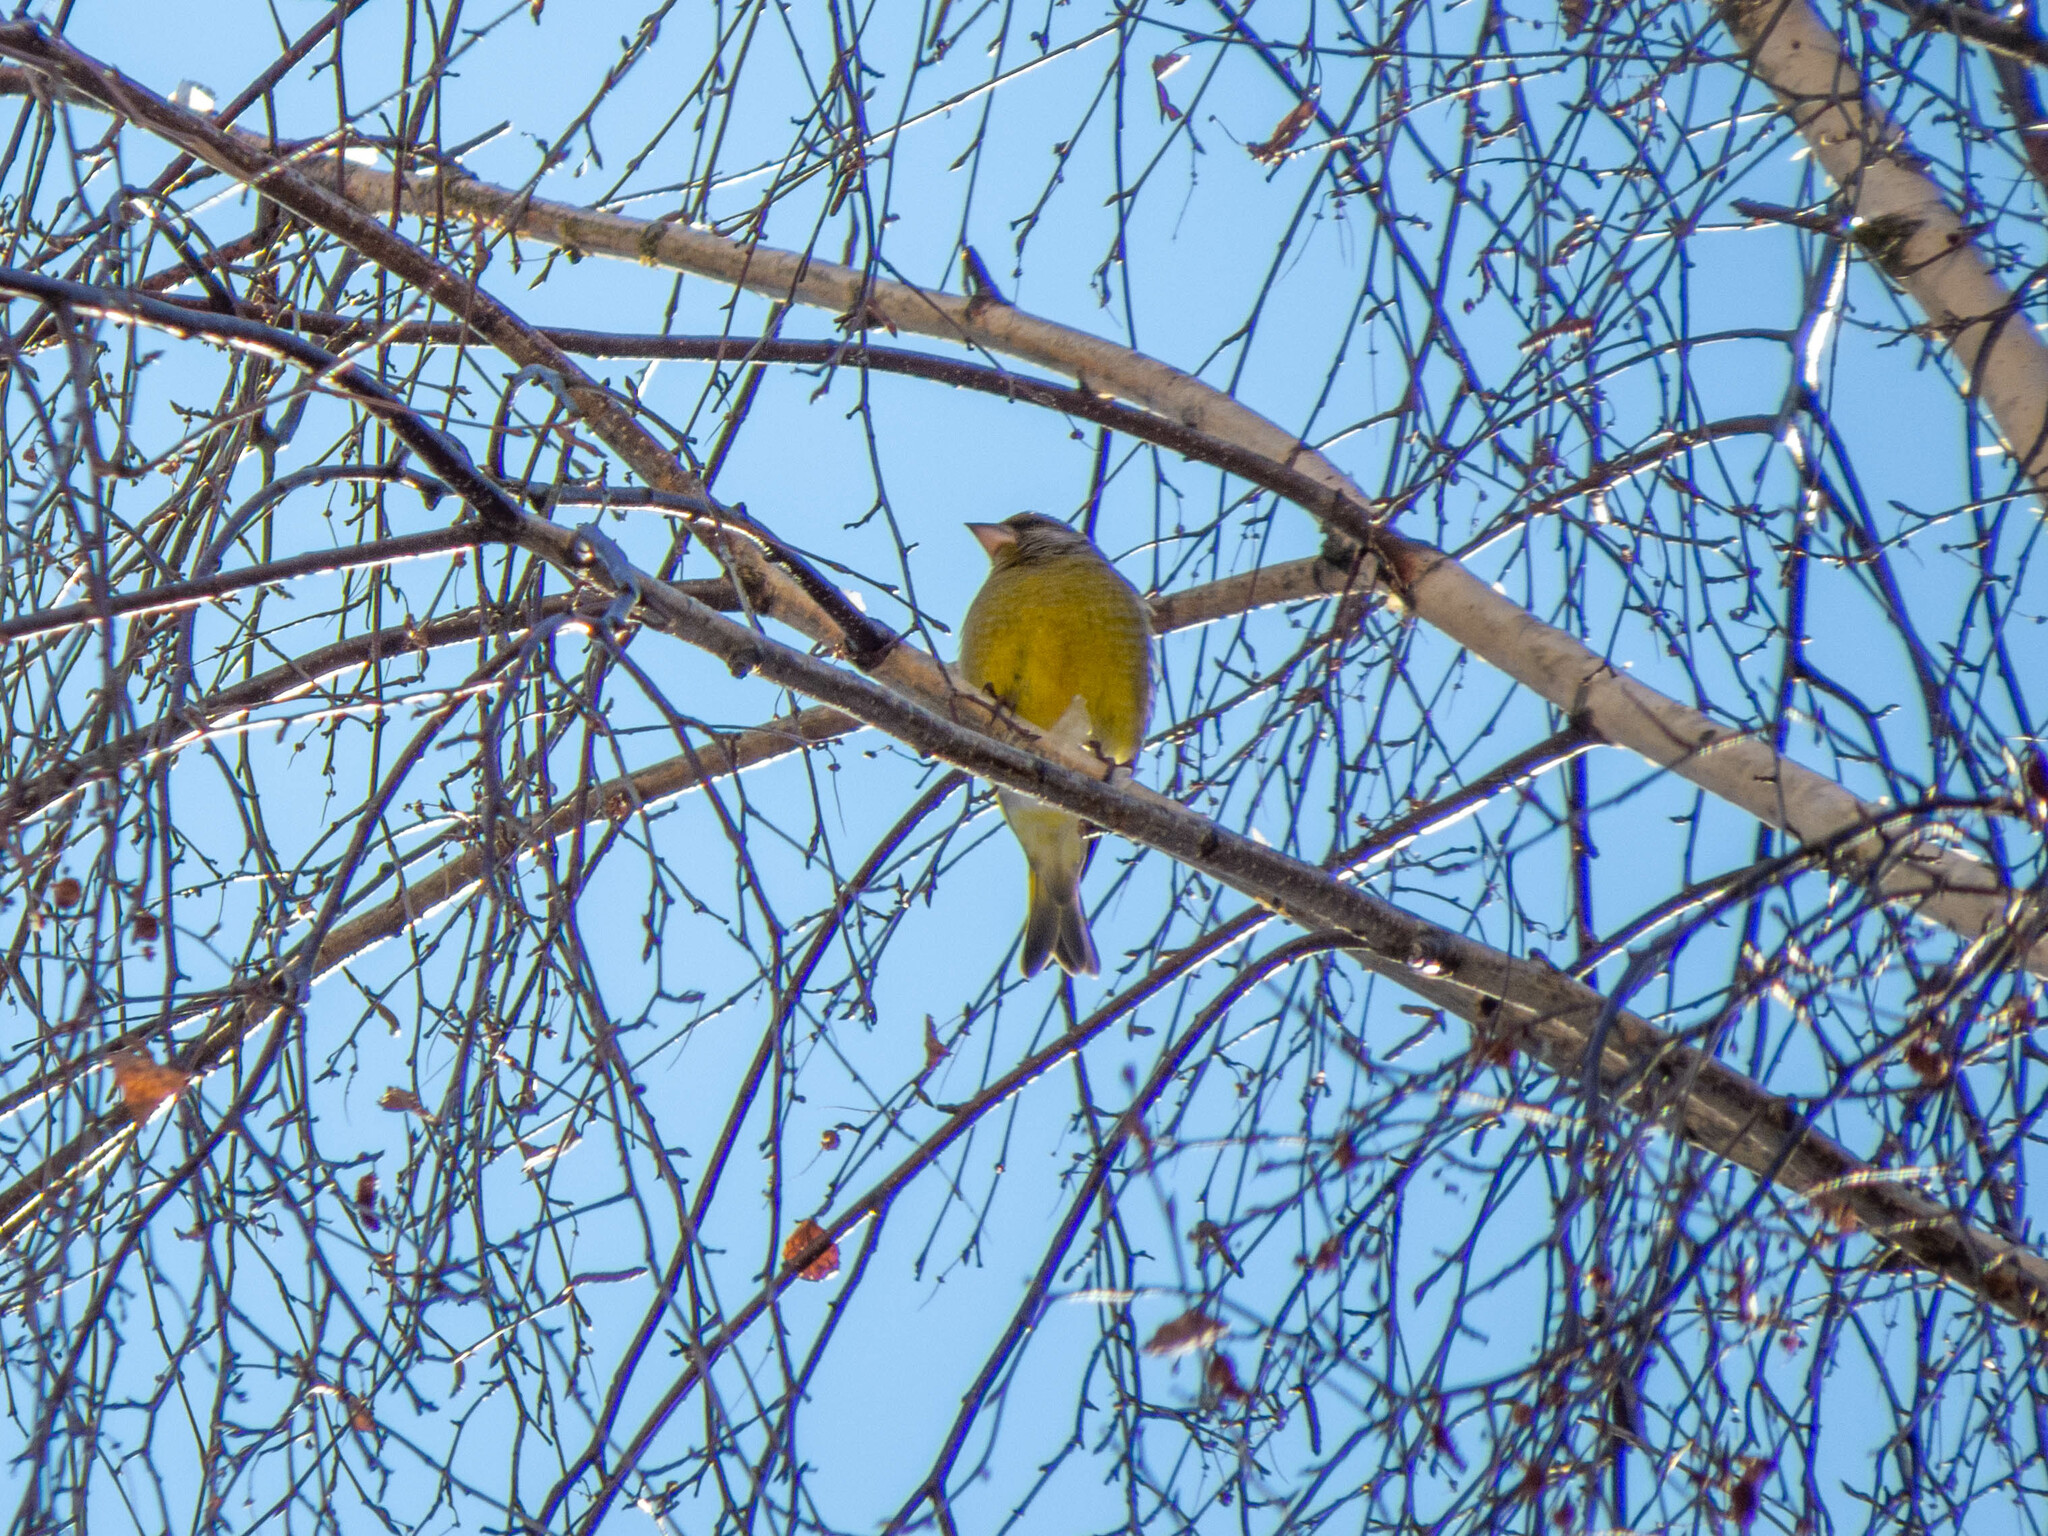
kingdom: Plantae
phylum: Tracheophyta
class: Liliopsida
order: Poales
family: Poaceae
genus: Chloris
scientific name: Chloris chloris
